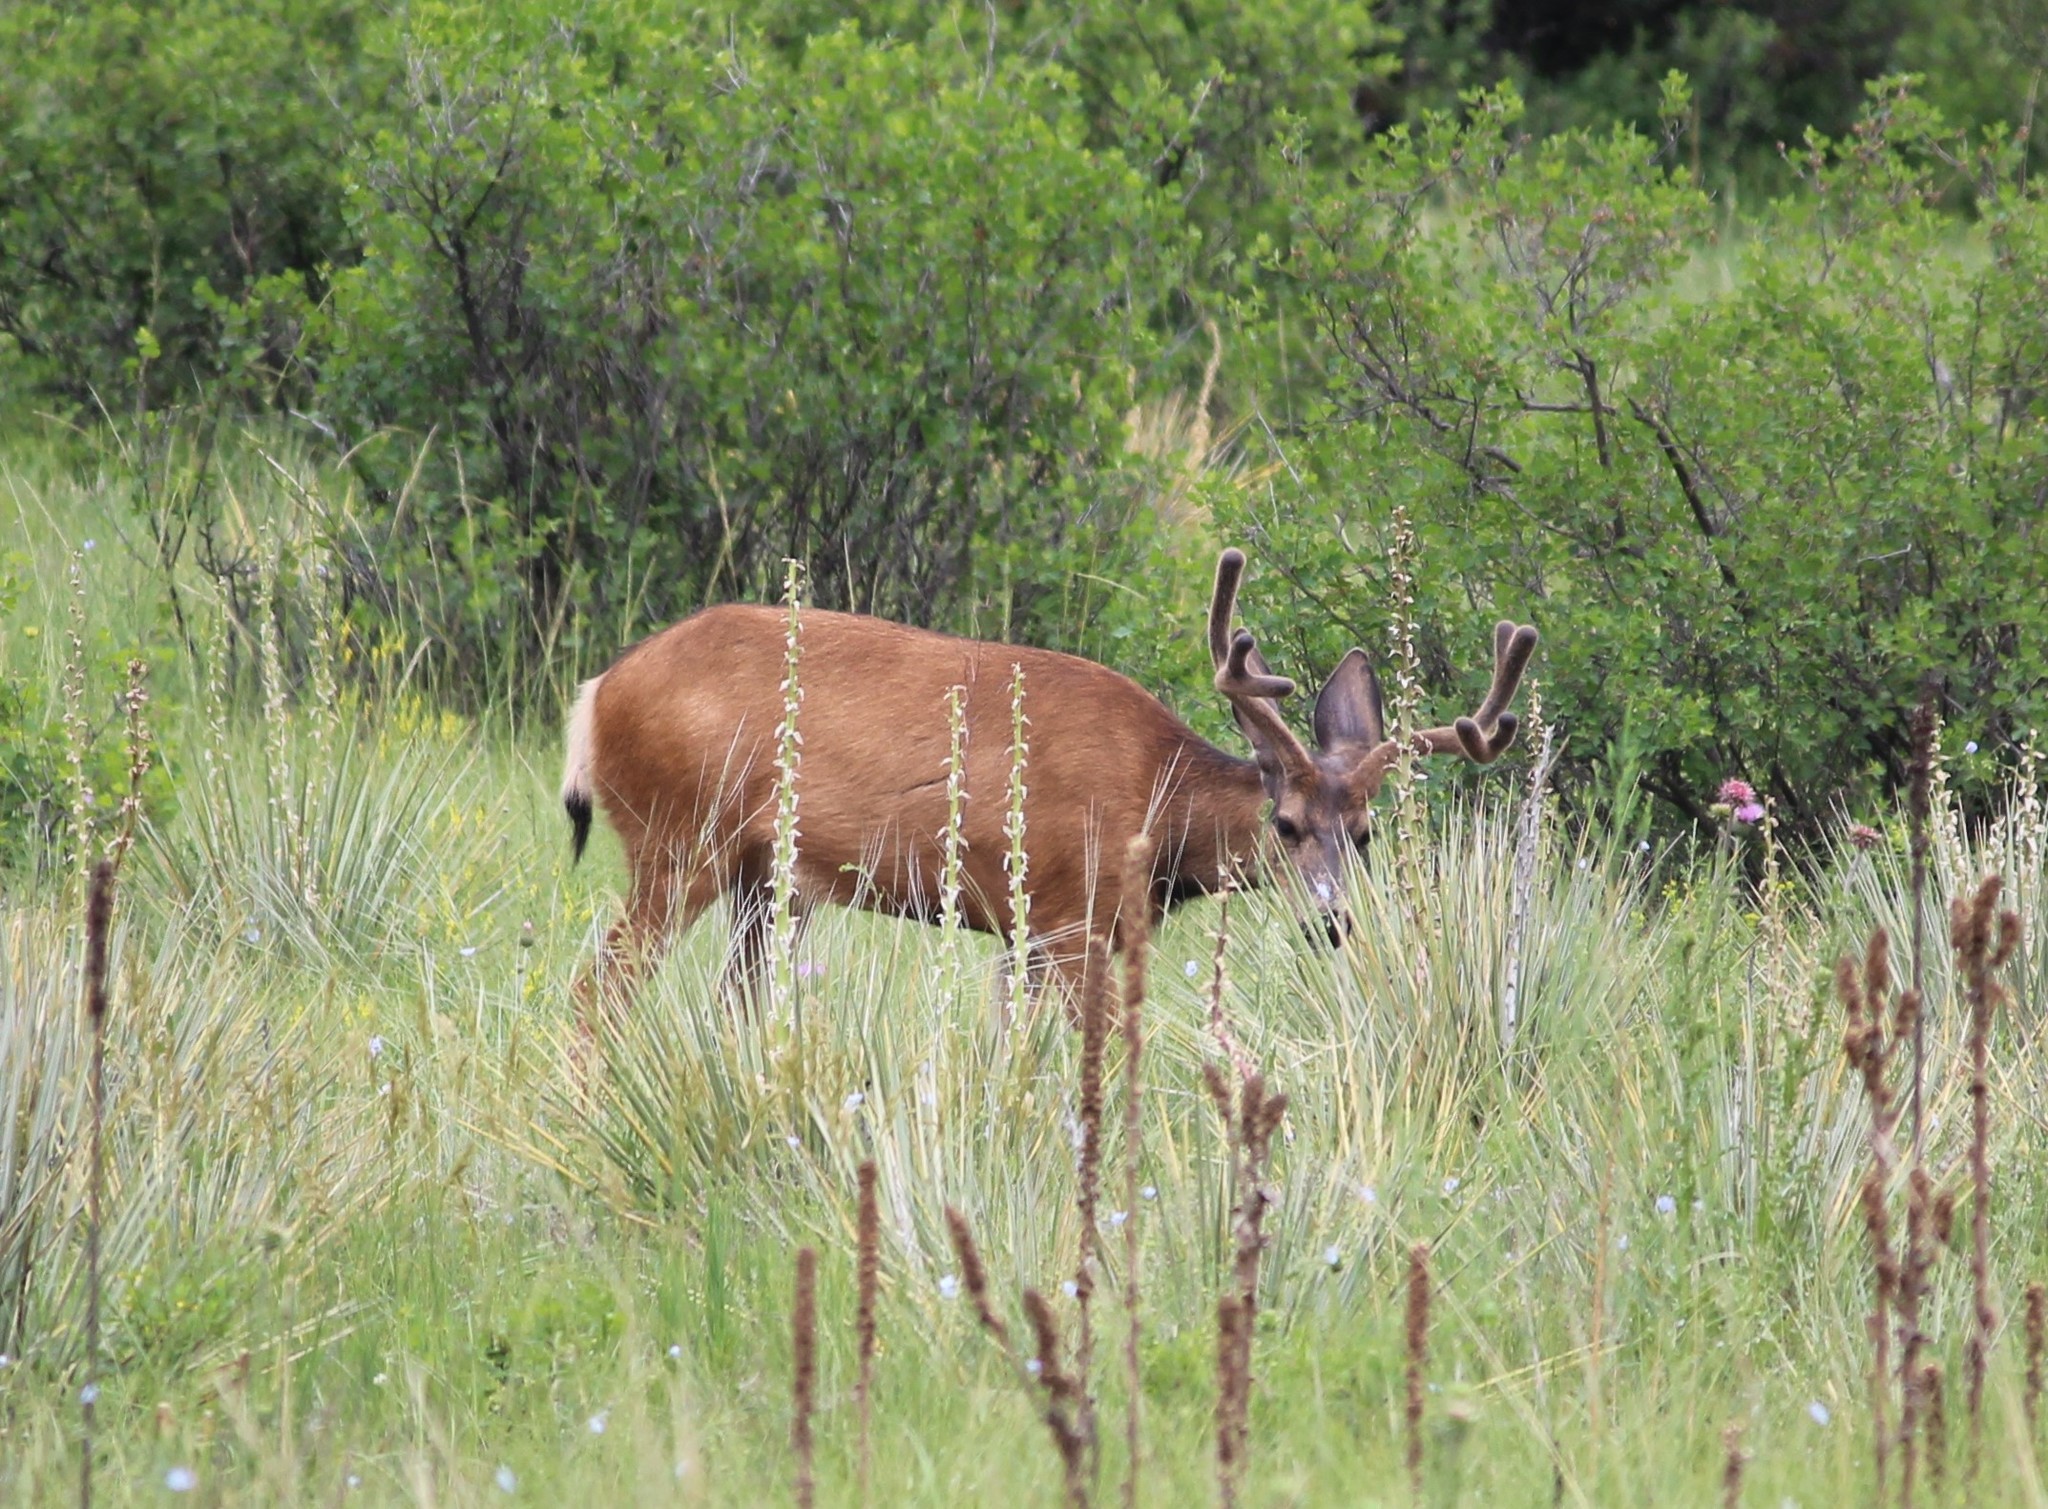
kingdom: Animalia
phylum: Chordata
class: Mammalia
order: Artiodactyla
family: Cervidae
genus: Odocoileus
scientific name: Odocoileus hemionus
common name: Mule deer
